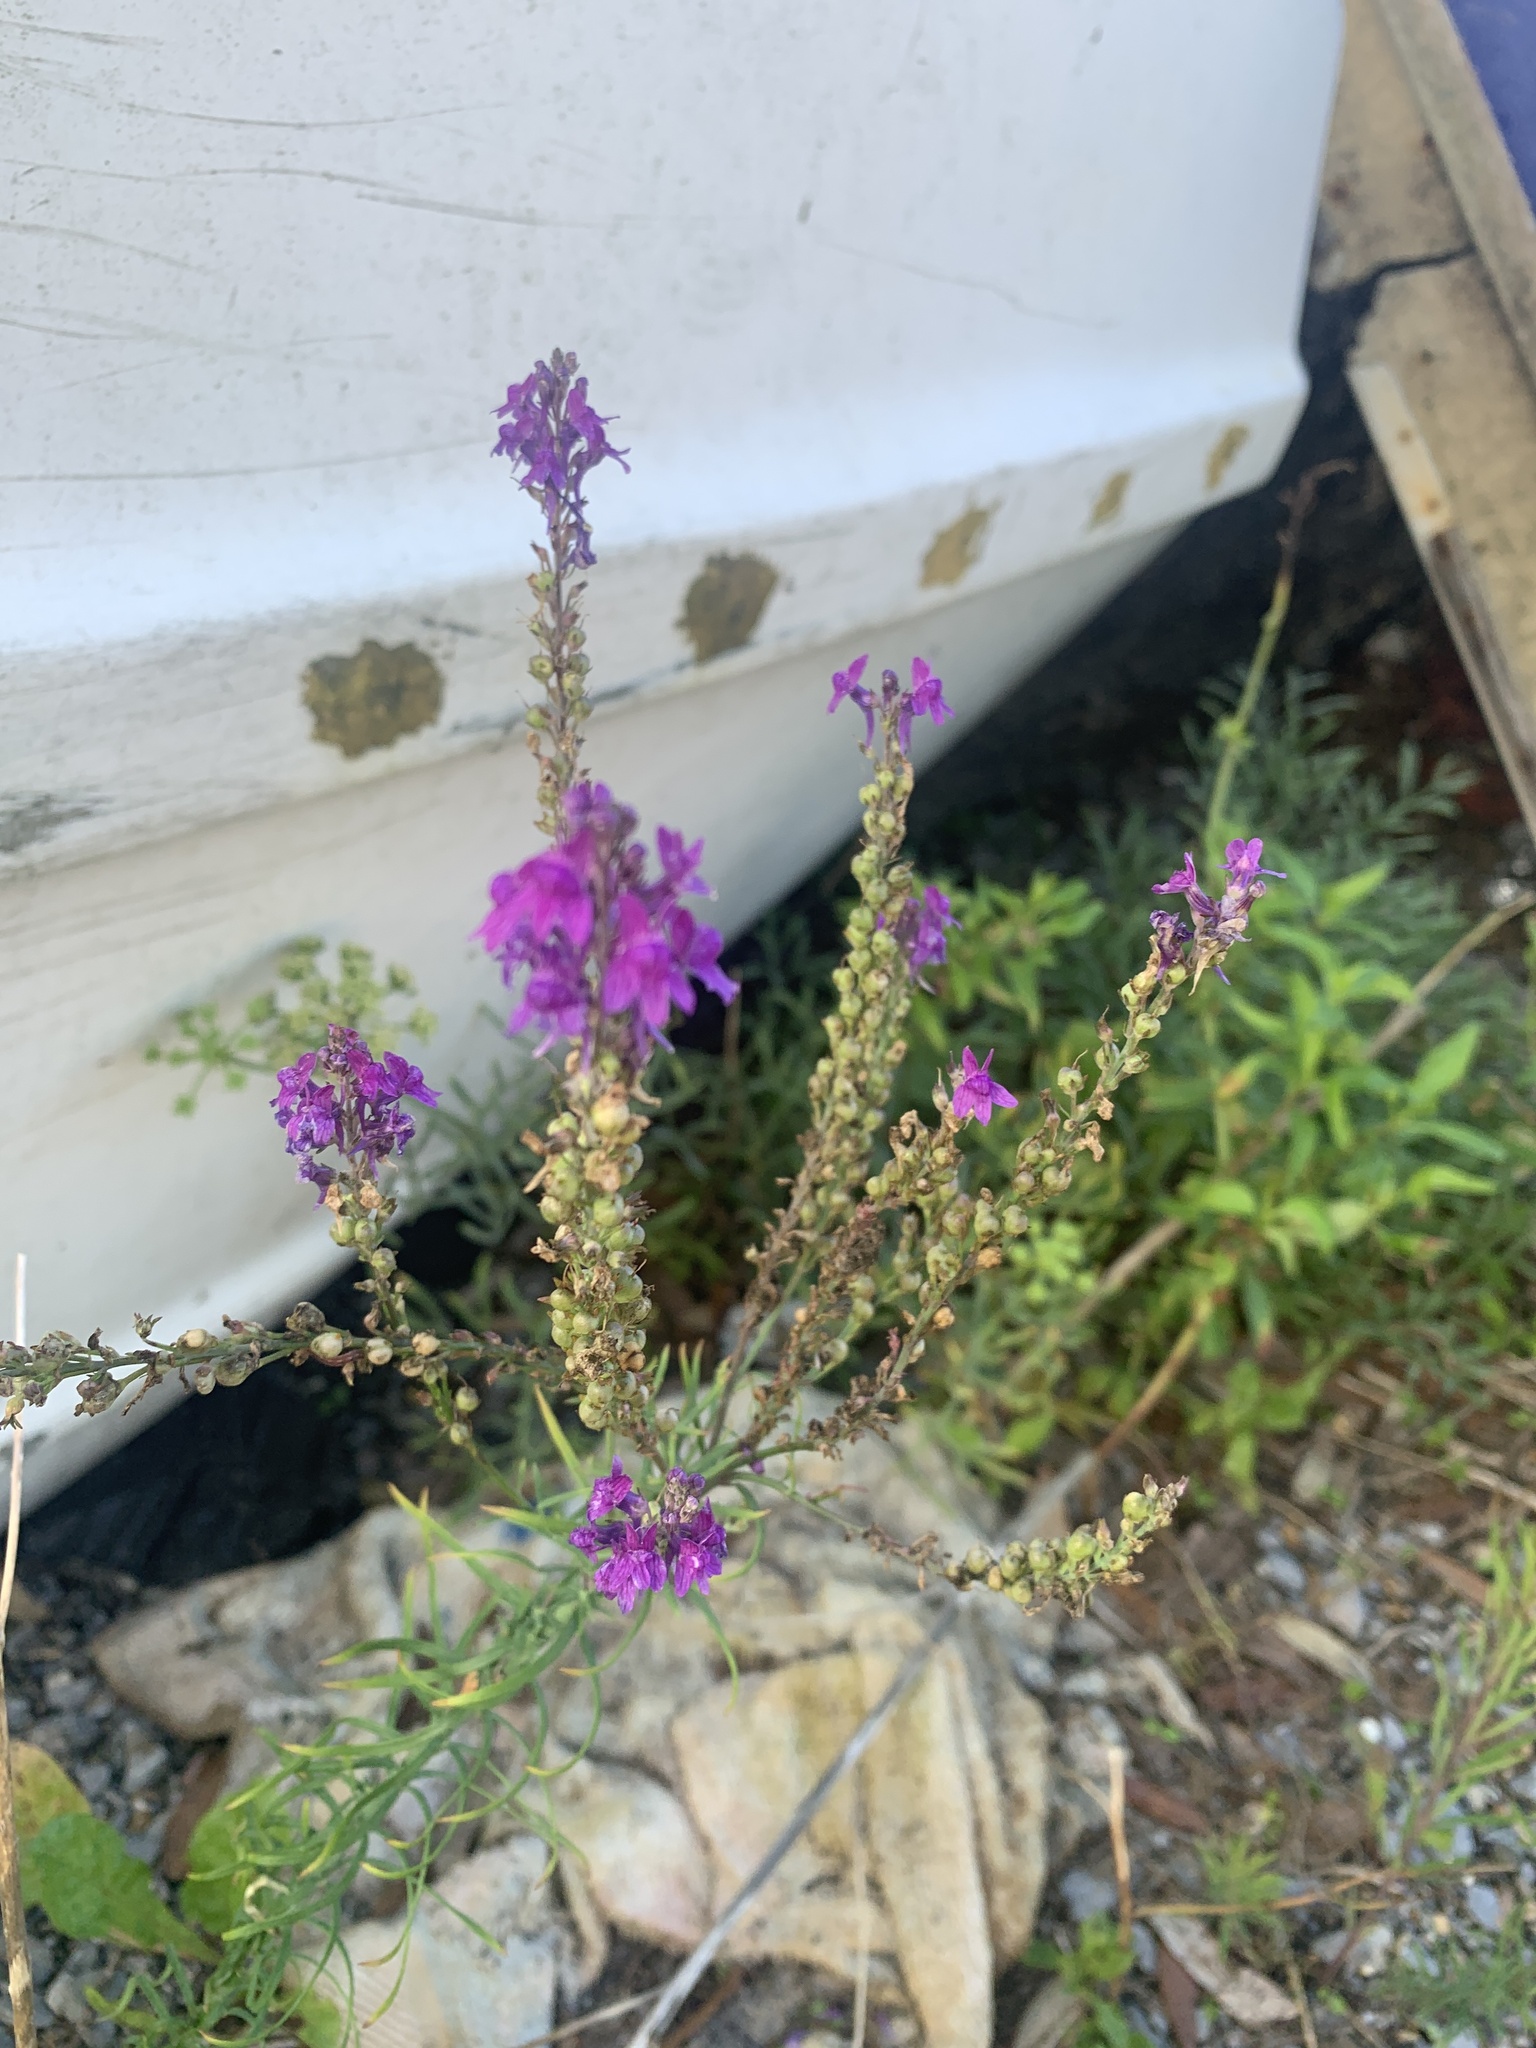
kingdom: Plantae
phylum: Tracheophyta
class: Magnoliopsida
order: Lamiales
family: Plantaginaceae
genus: Linaria
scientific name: Linaria purpurea
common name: Purple toadflax
